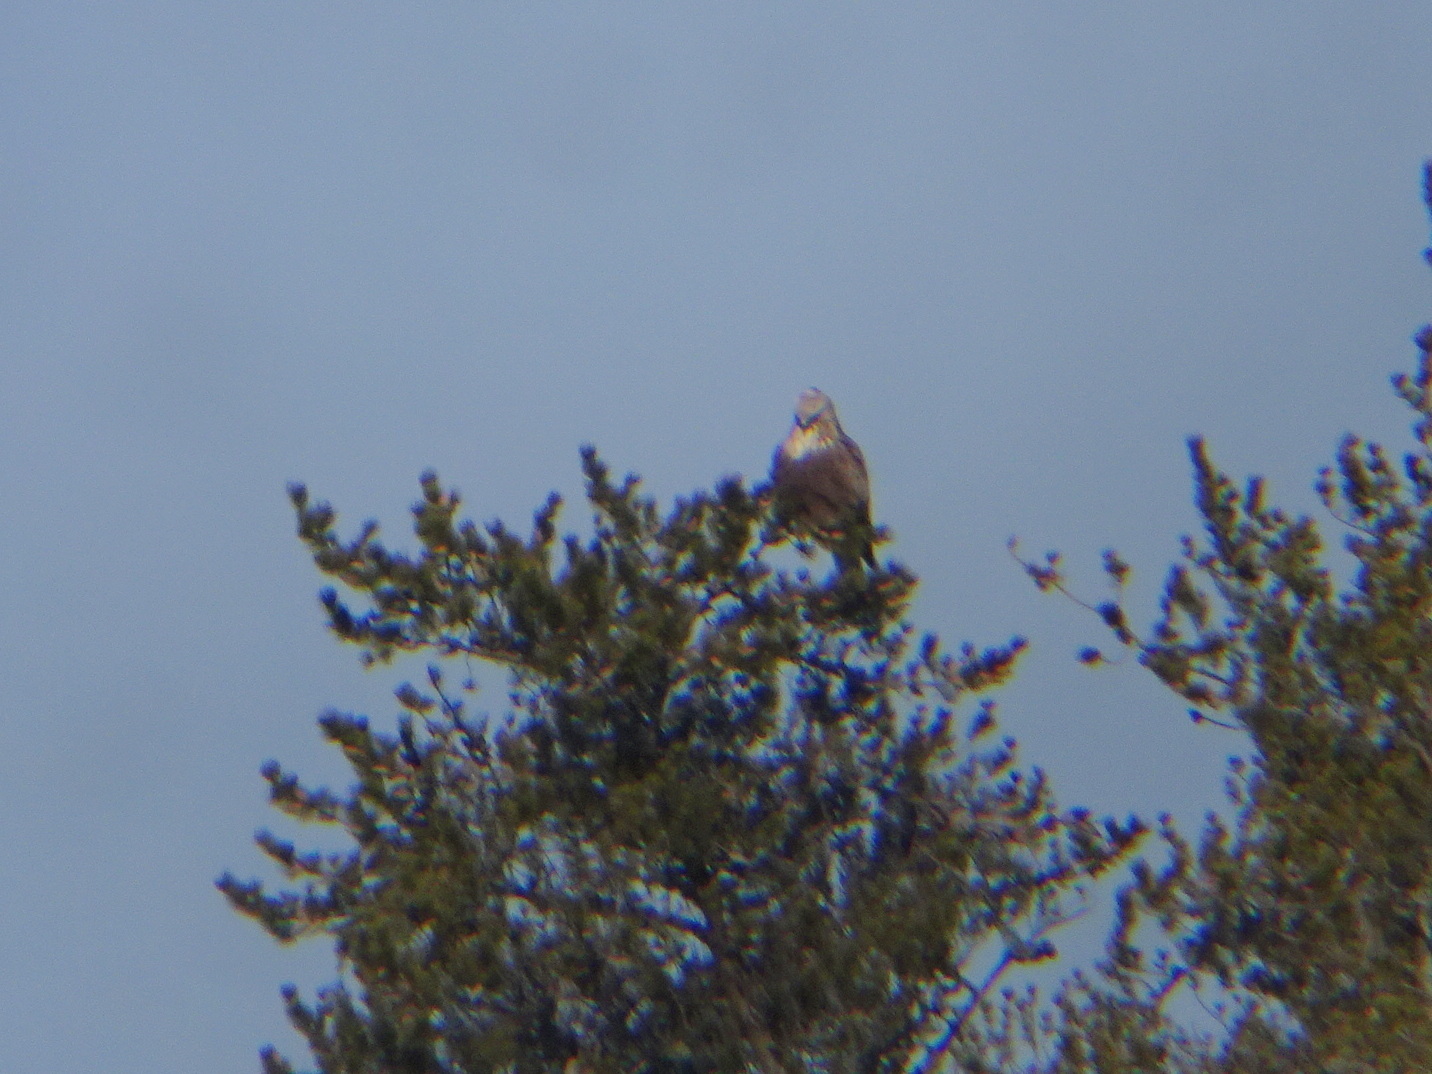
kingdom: Animalia
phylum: Chordata
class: Aves
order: Accipitriformes
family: Accipitridae
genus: Buteo
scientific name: Buteo lagopus
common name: Rough-legged buzzard
